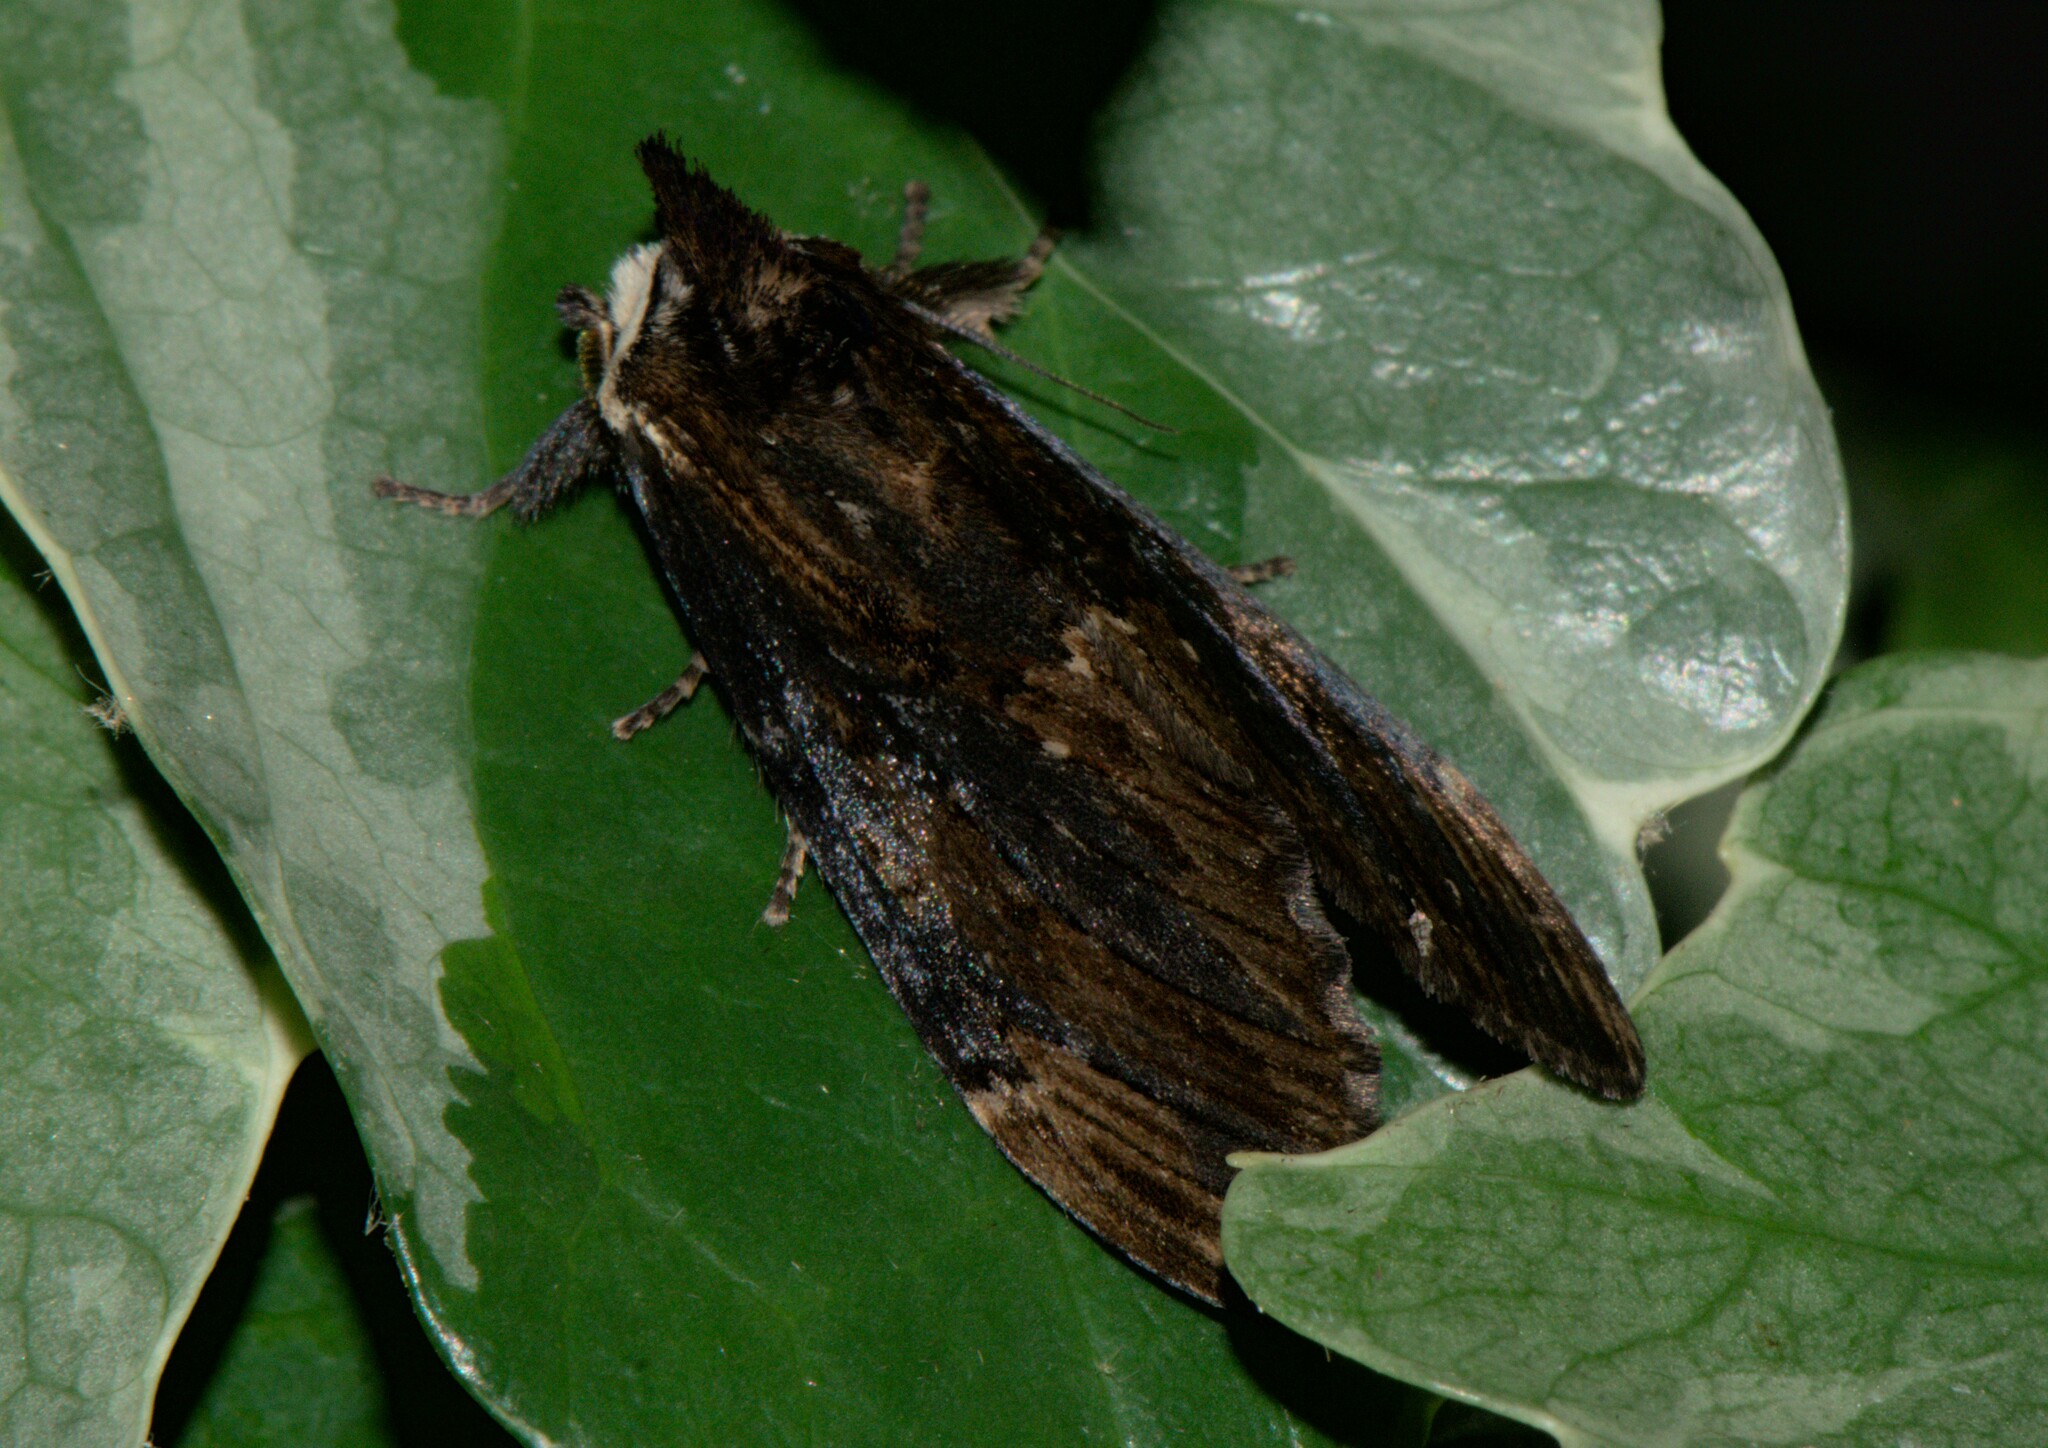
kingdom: Animalia
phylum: Arthropoda
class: Insecta
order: Lepidoptera
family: Notodontidae
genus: Allodonta
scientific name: Allodonta collaris
